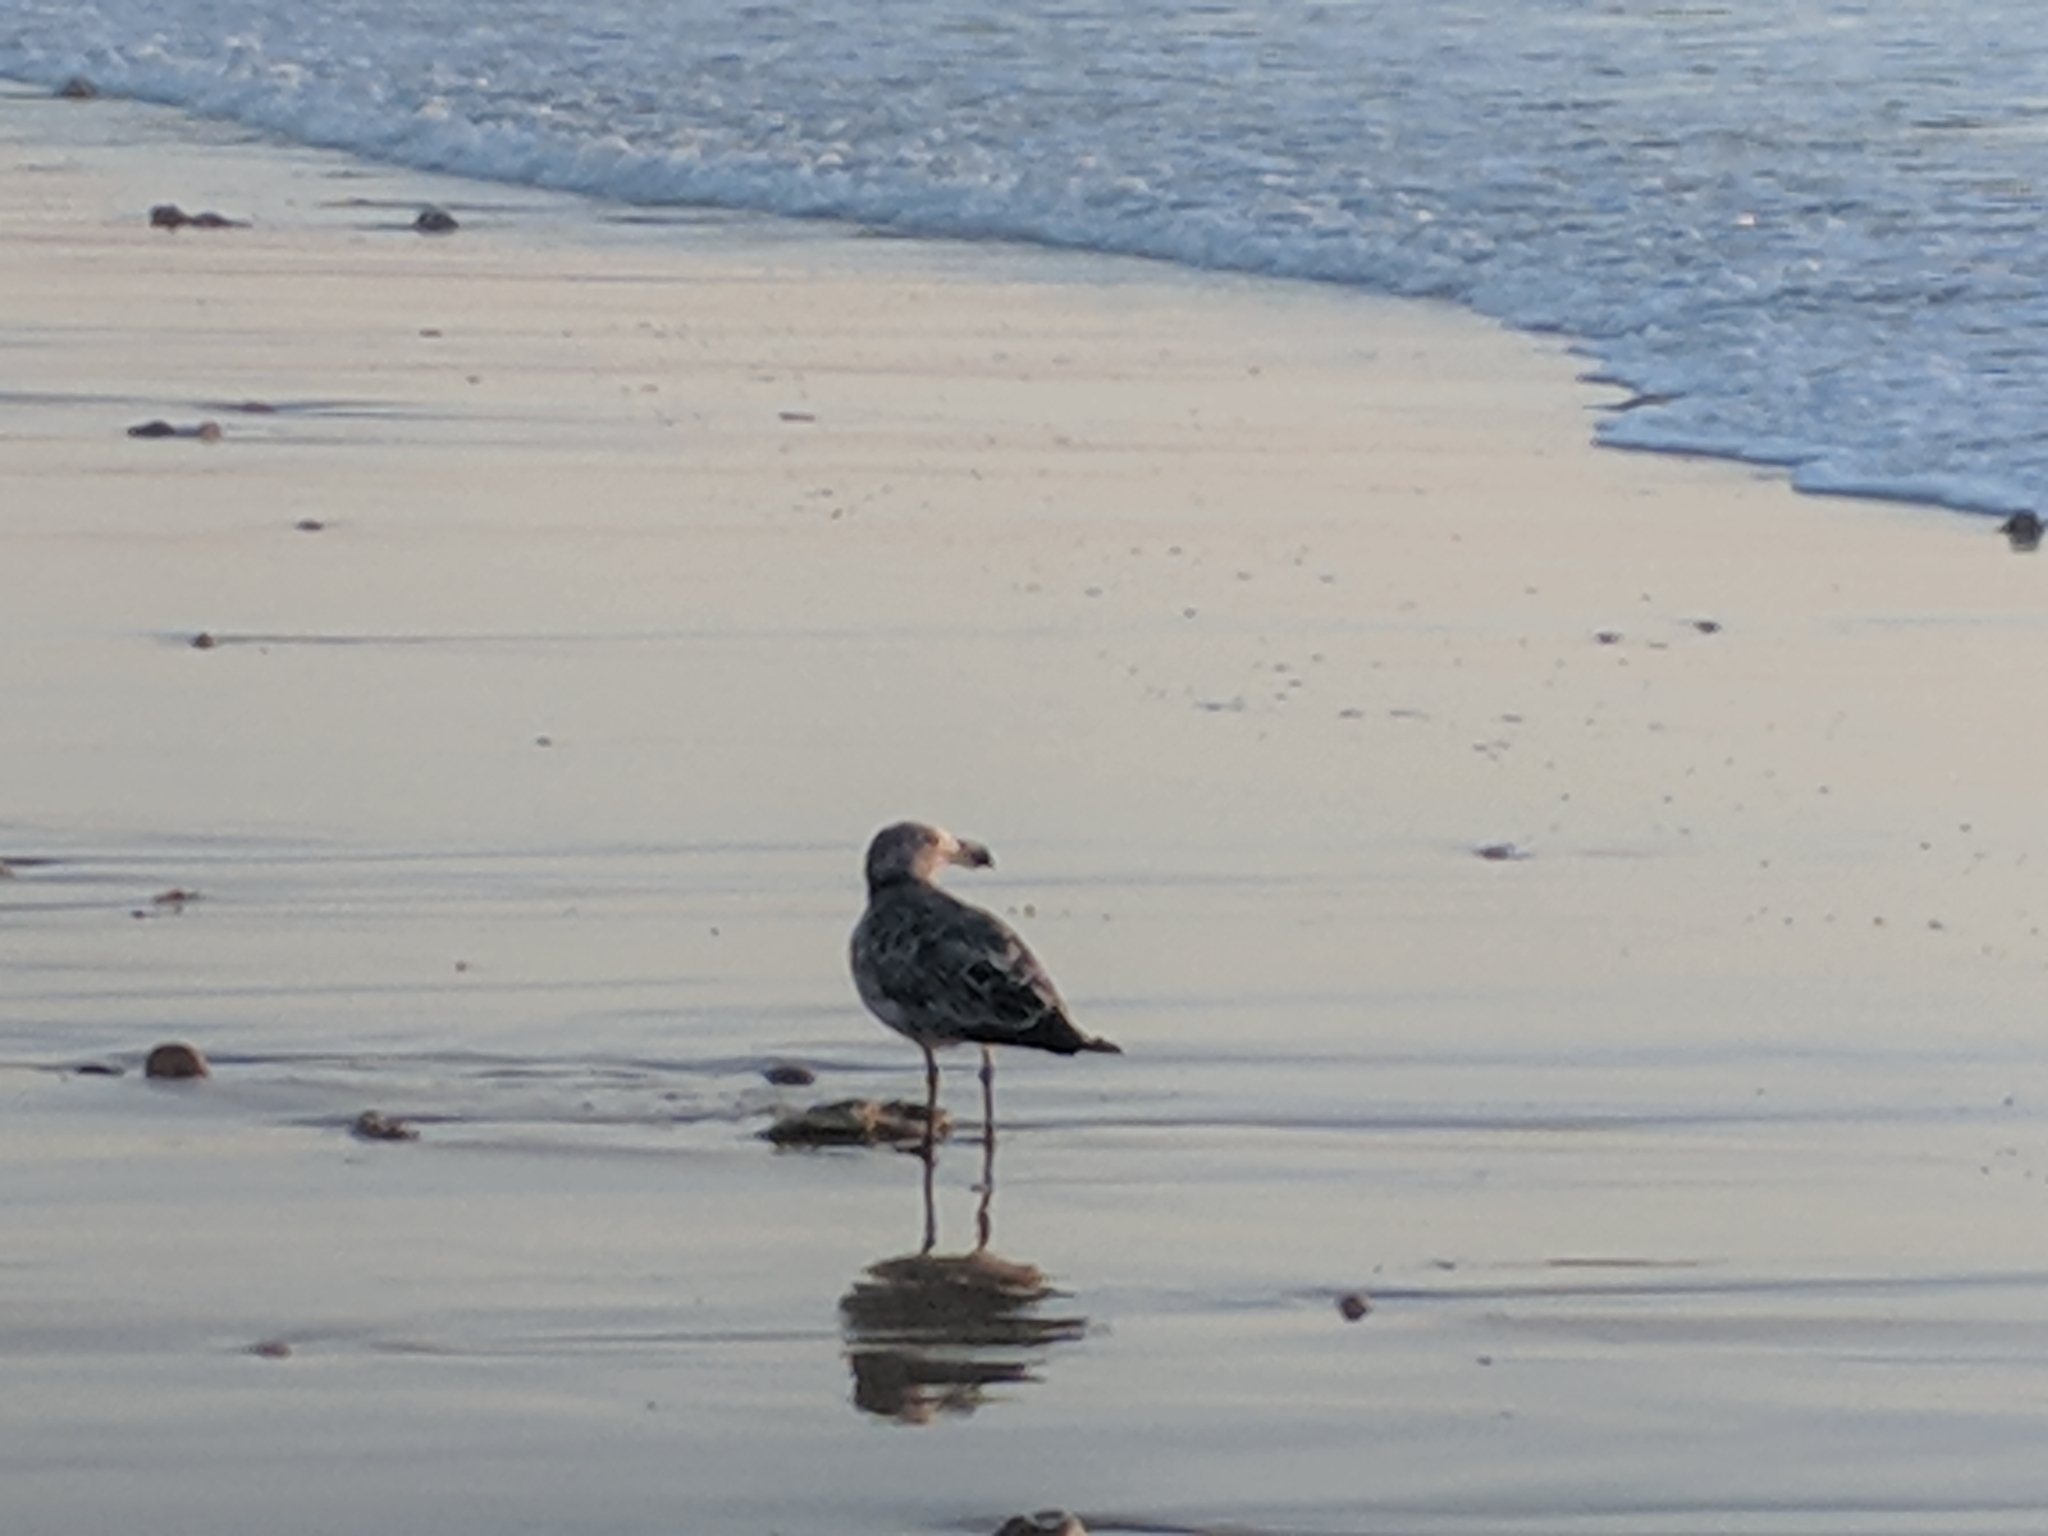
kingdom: Animalia
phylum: Chordata
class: Aves
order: Charadriiformes
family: Laridae
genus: Larus
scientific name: Larus pacificus
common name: Pacific gull
